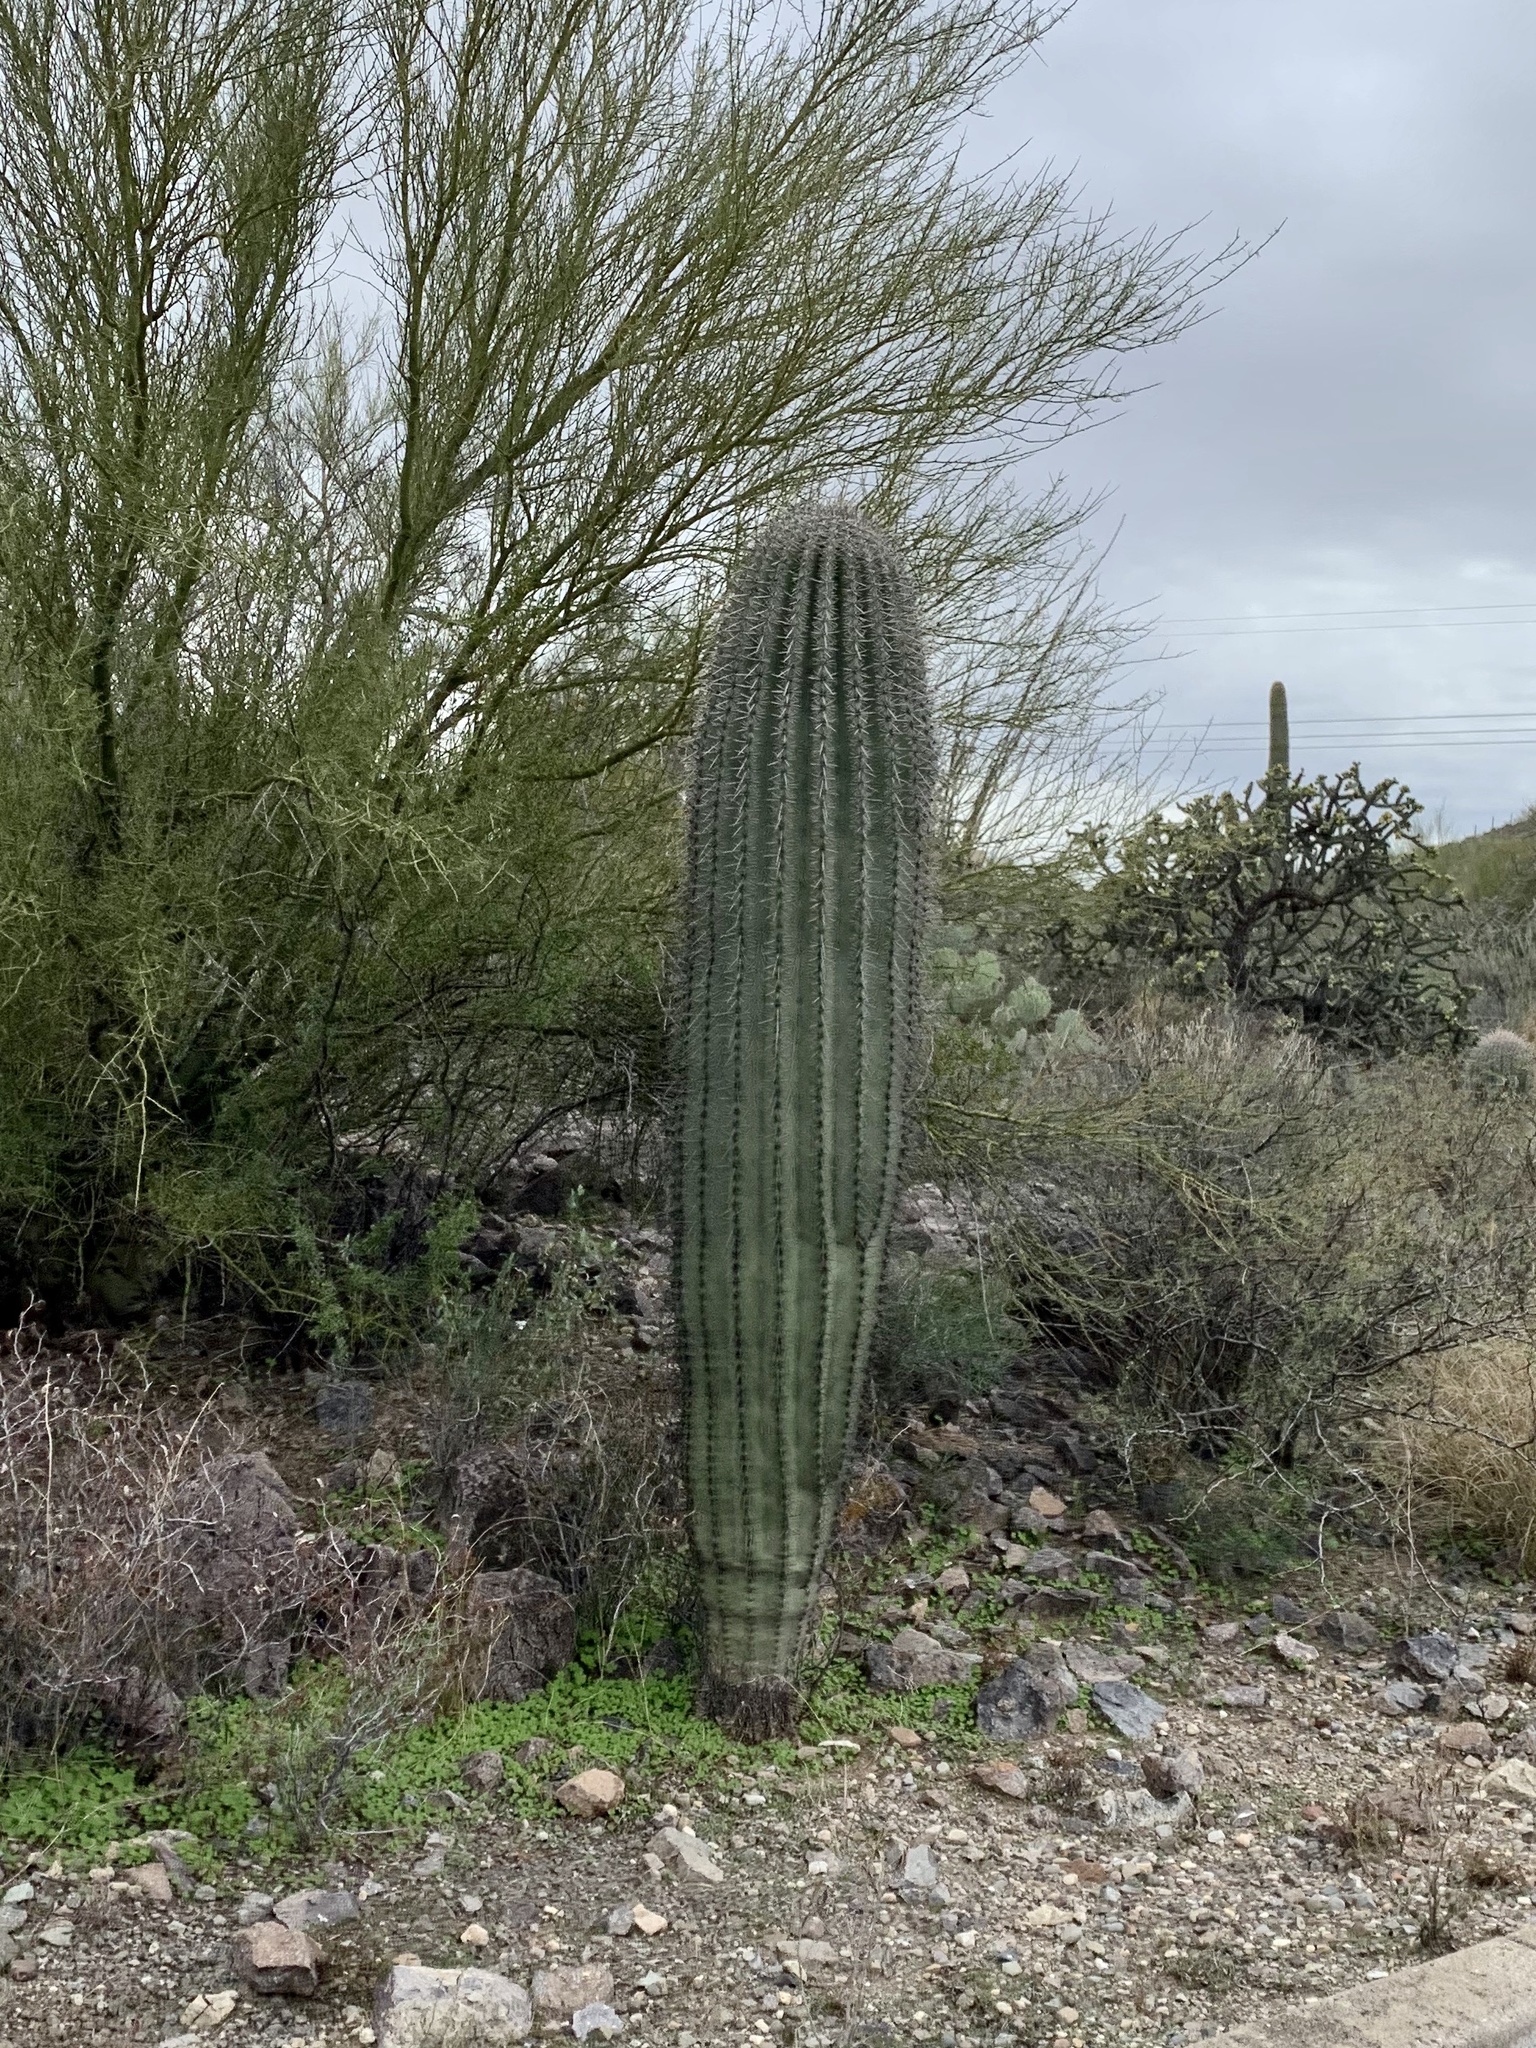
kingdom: Plantae
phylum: Tracheophyta
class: Magnoliopsida
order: Caryophyllales
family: Cactaceae
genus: Carnegiea
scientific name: Carnegiea gigantea
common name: Saguaro
